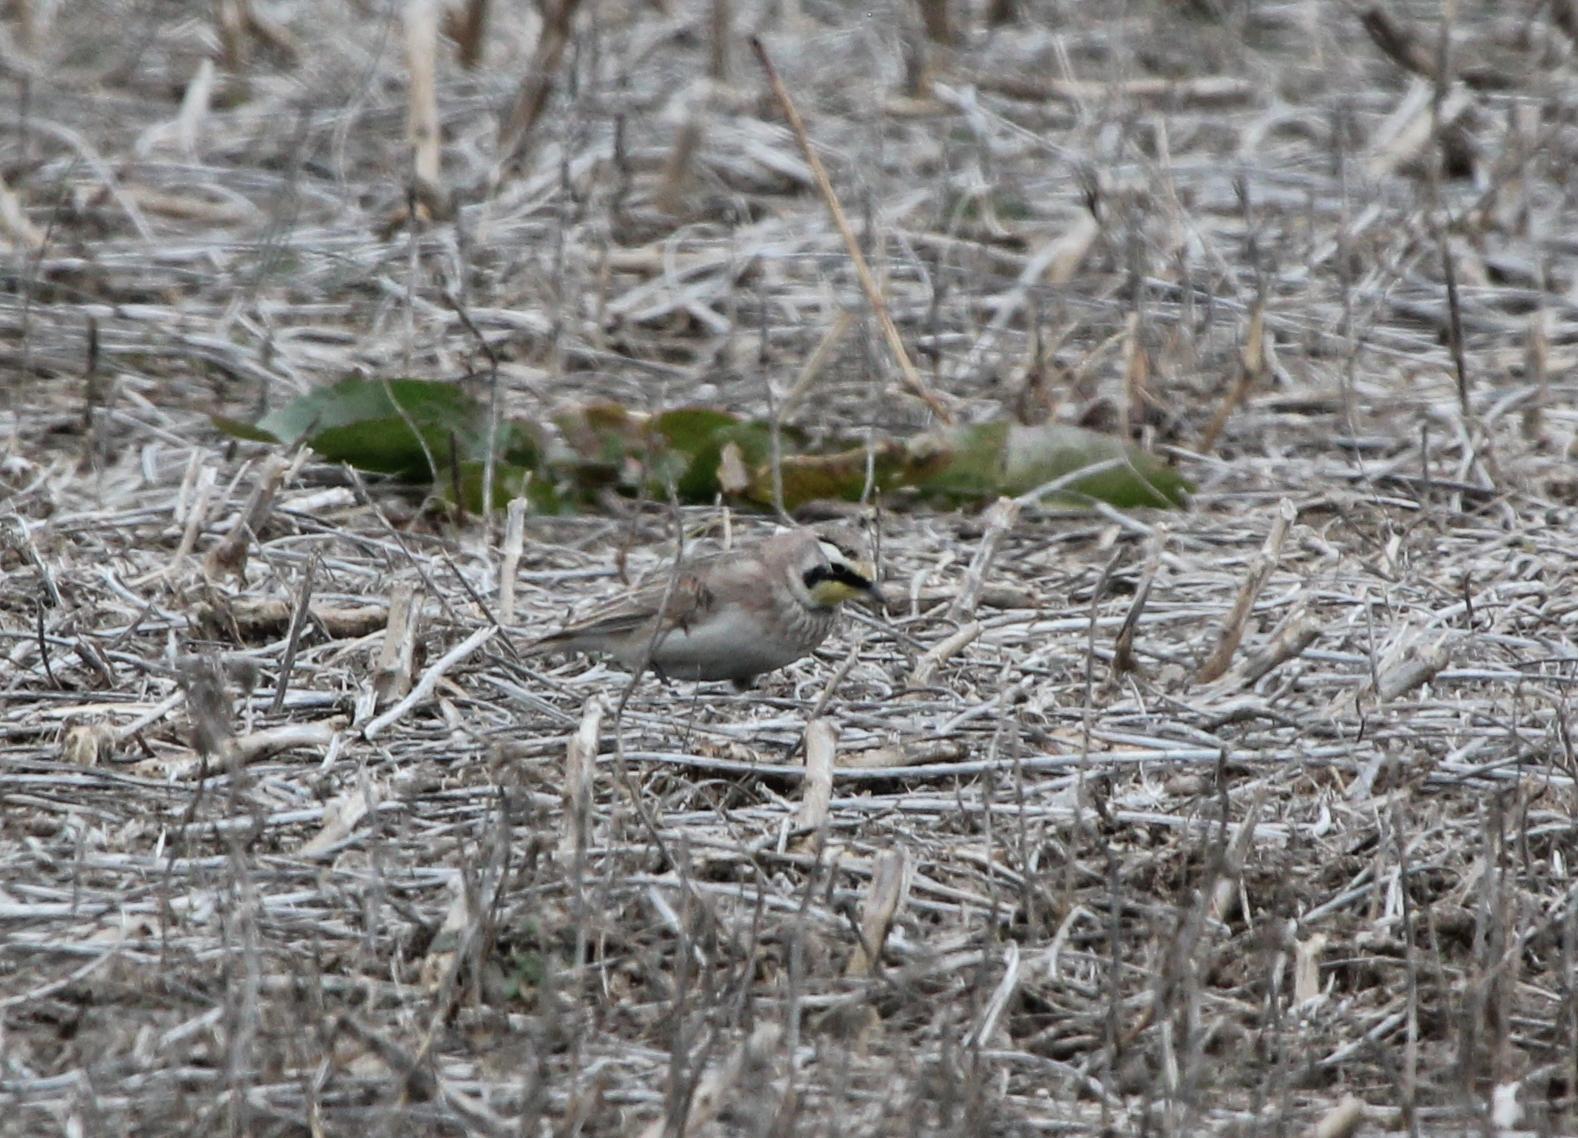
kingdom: Animalia
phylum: Chordata
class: Aves
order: Passeriformes
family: Alaudidae
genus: Eremophila
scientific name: Eremophila alpestris
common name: Horned lark
